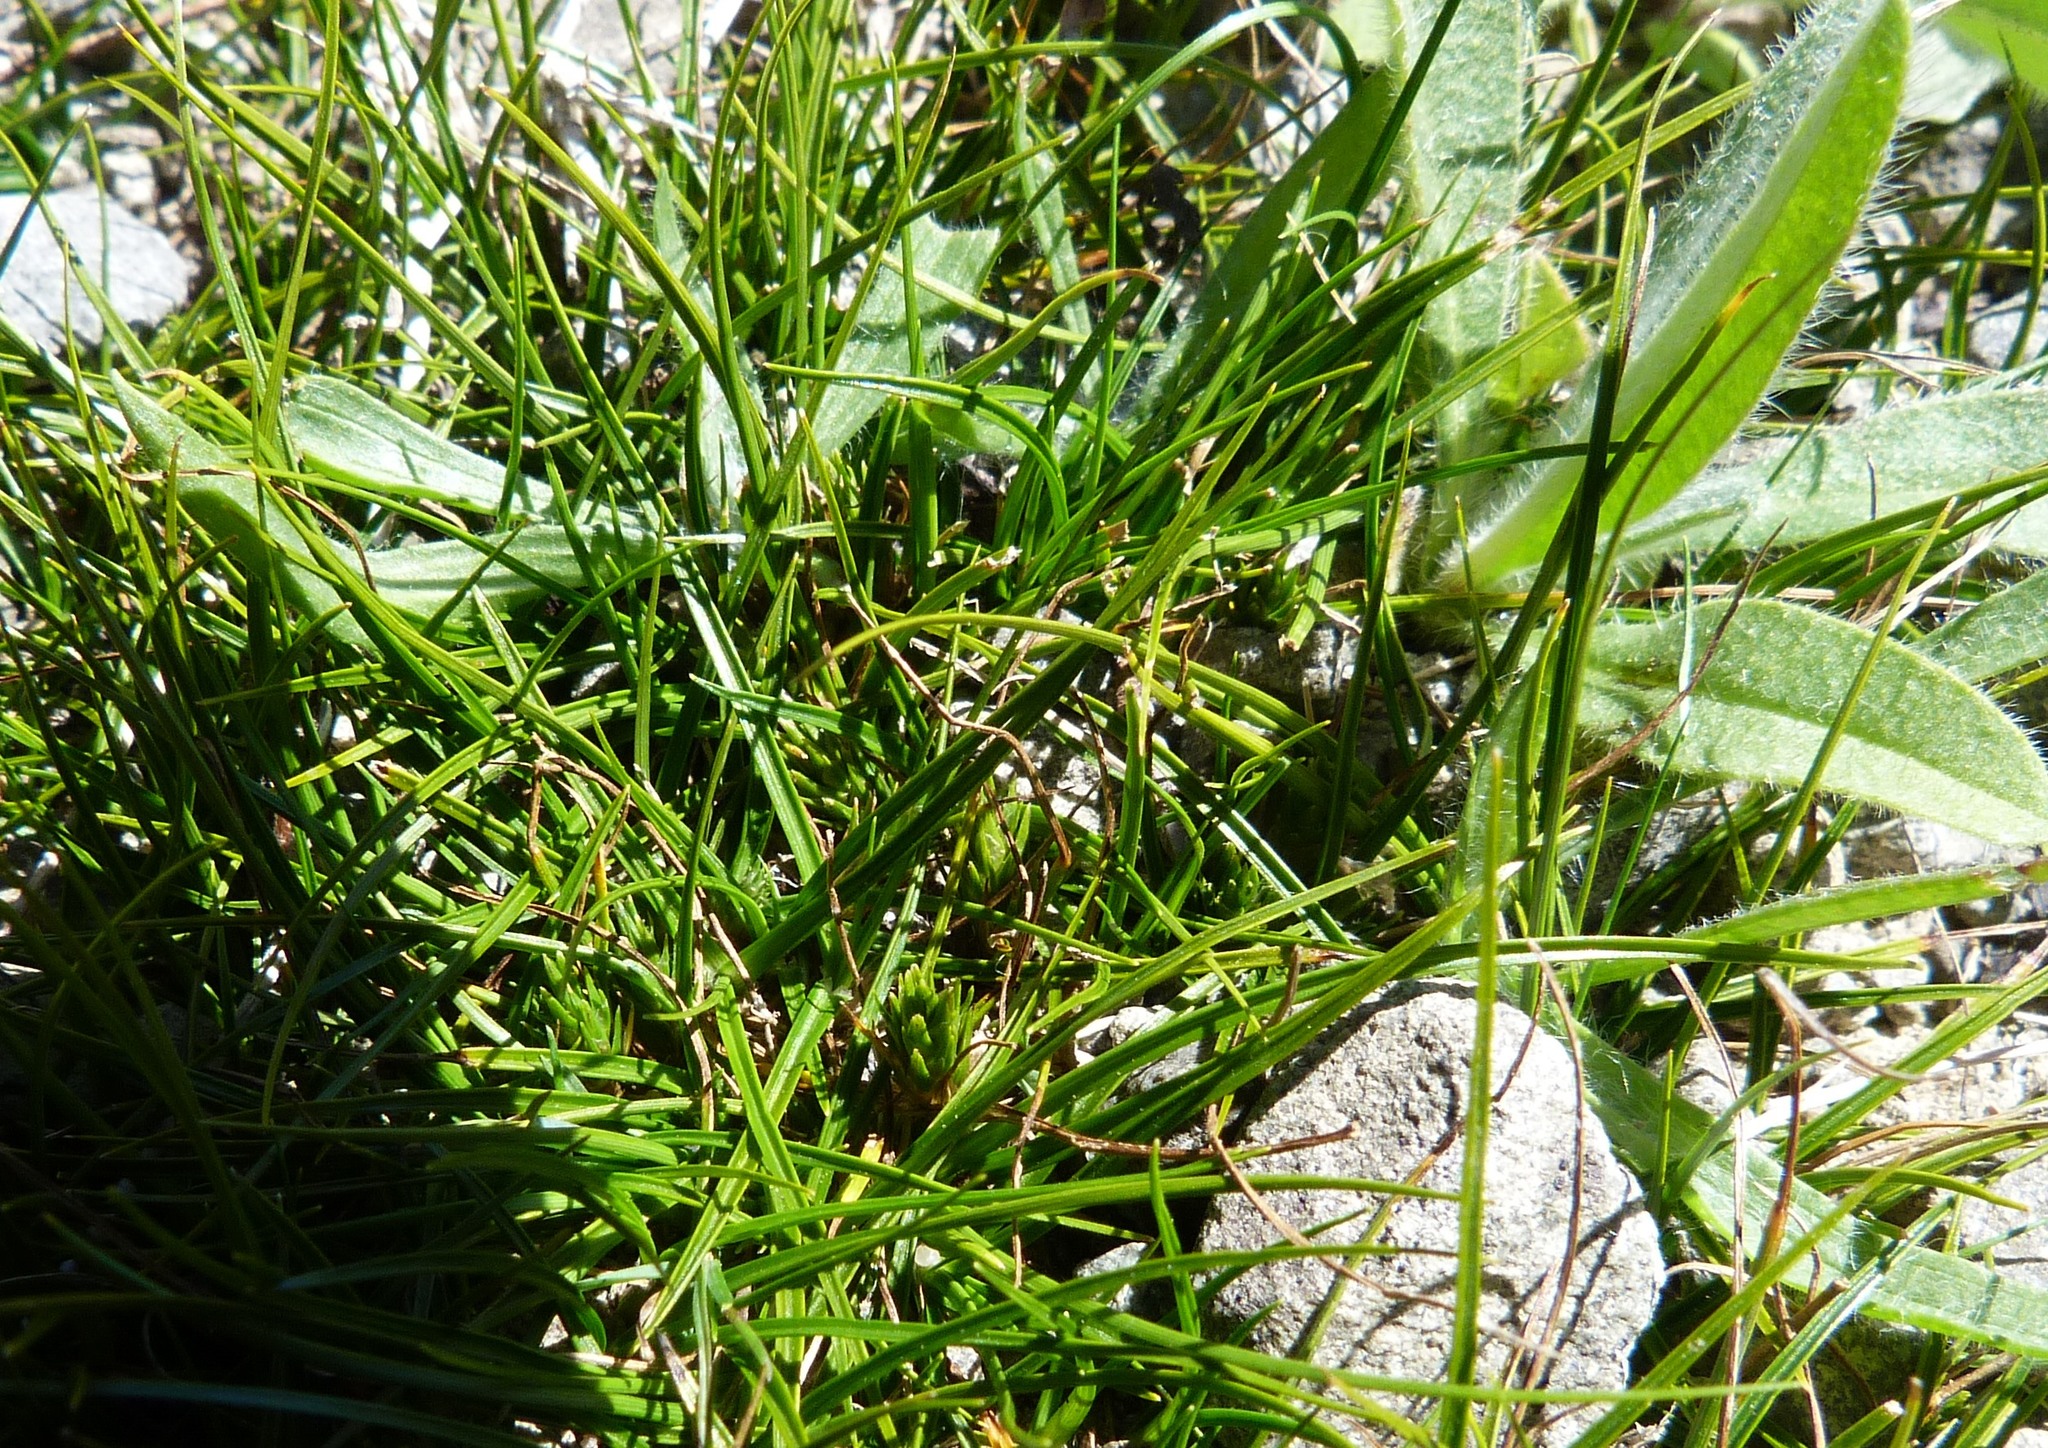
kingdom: Plantae
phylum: Tracheophyta
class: Liliopsida
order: Poales
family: Cyperaceae
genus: Carex
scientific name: Carex resectans
